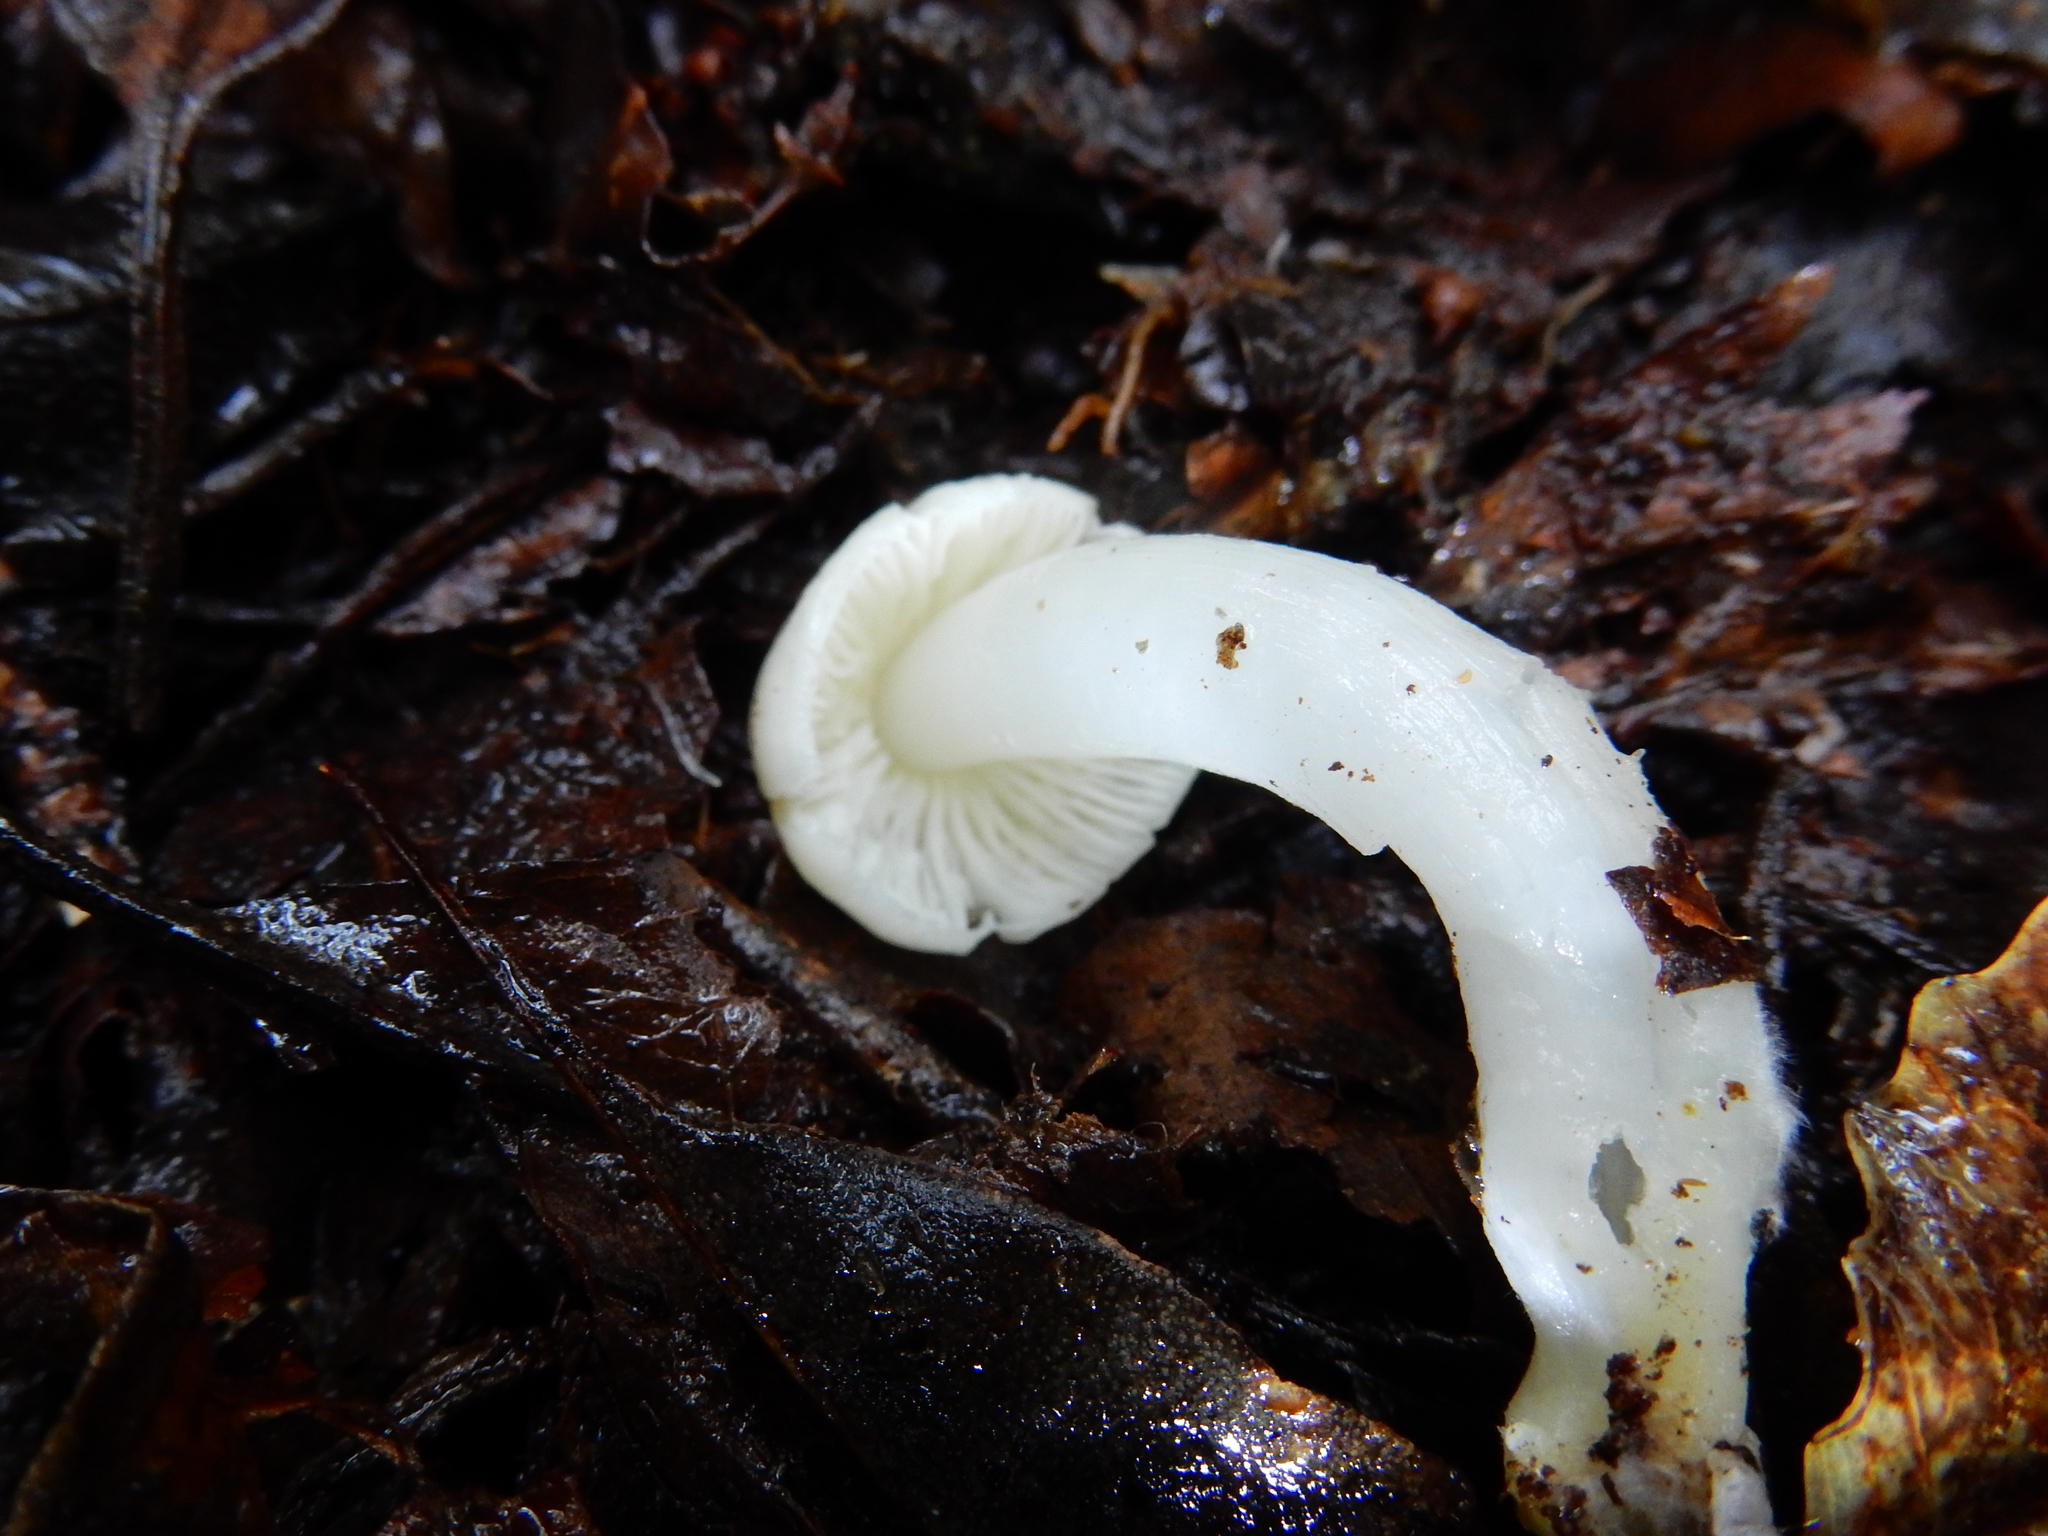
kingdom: Fungi
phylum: Basidiomycota
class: Agaricomycetes
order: Agaricales
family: Hygrophoraceae
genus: Humidicutis
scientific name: Humidicutis mavis
